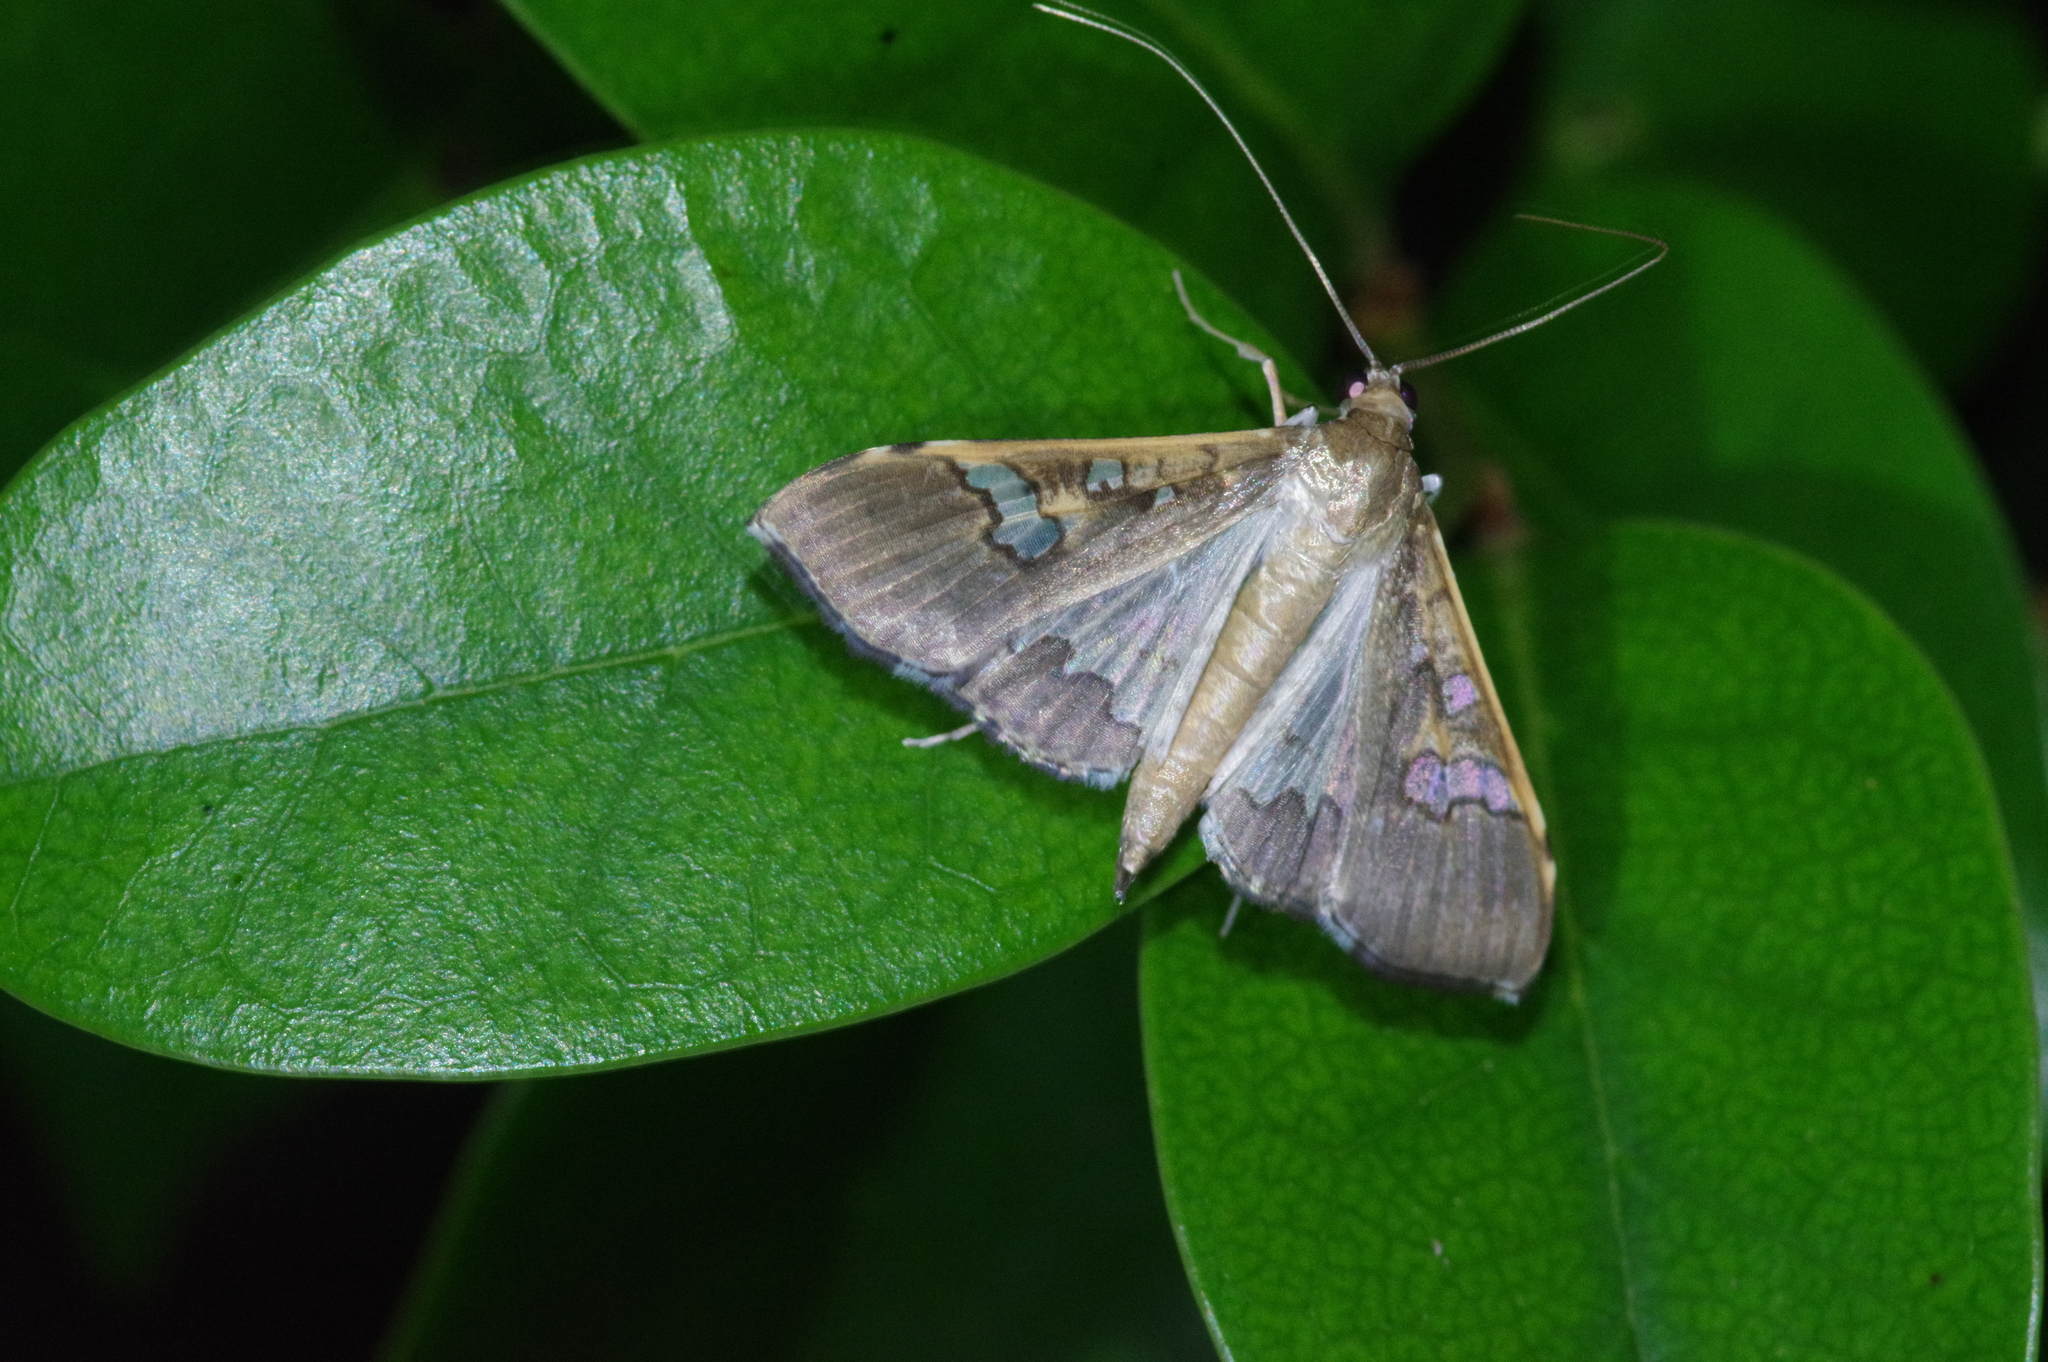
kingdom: Animalia
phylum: Arthropoda
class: Insecta
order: Lepidoptera
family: Crambidae
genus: Maruca
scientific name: Maruca vitrata
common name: Maruca pod borer
